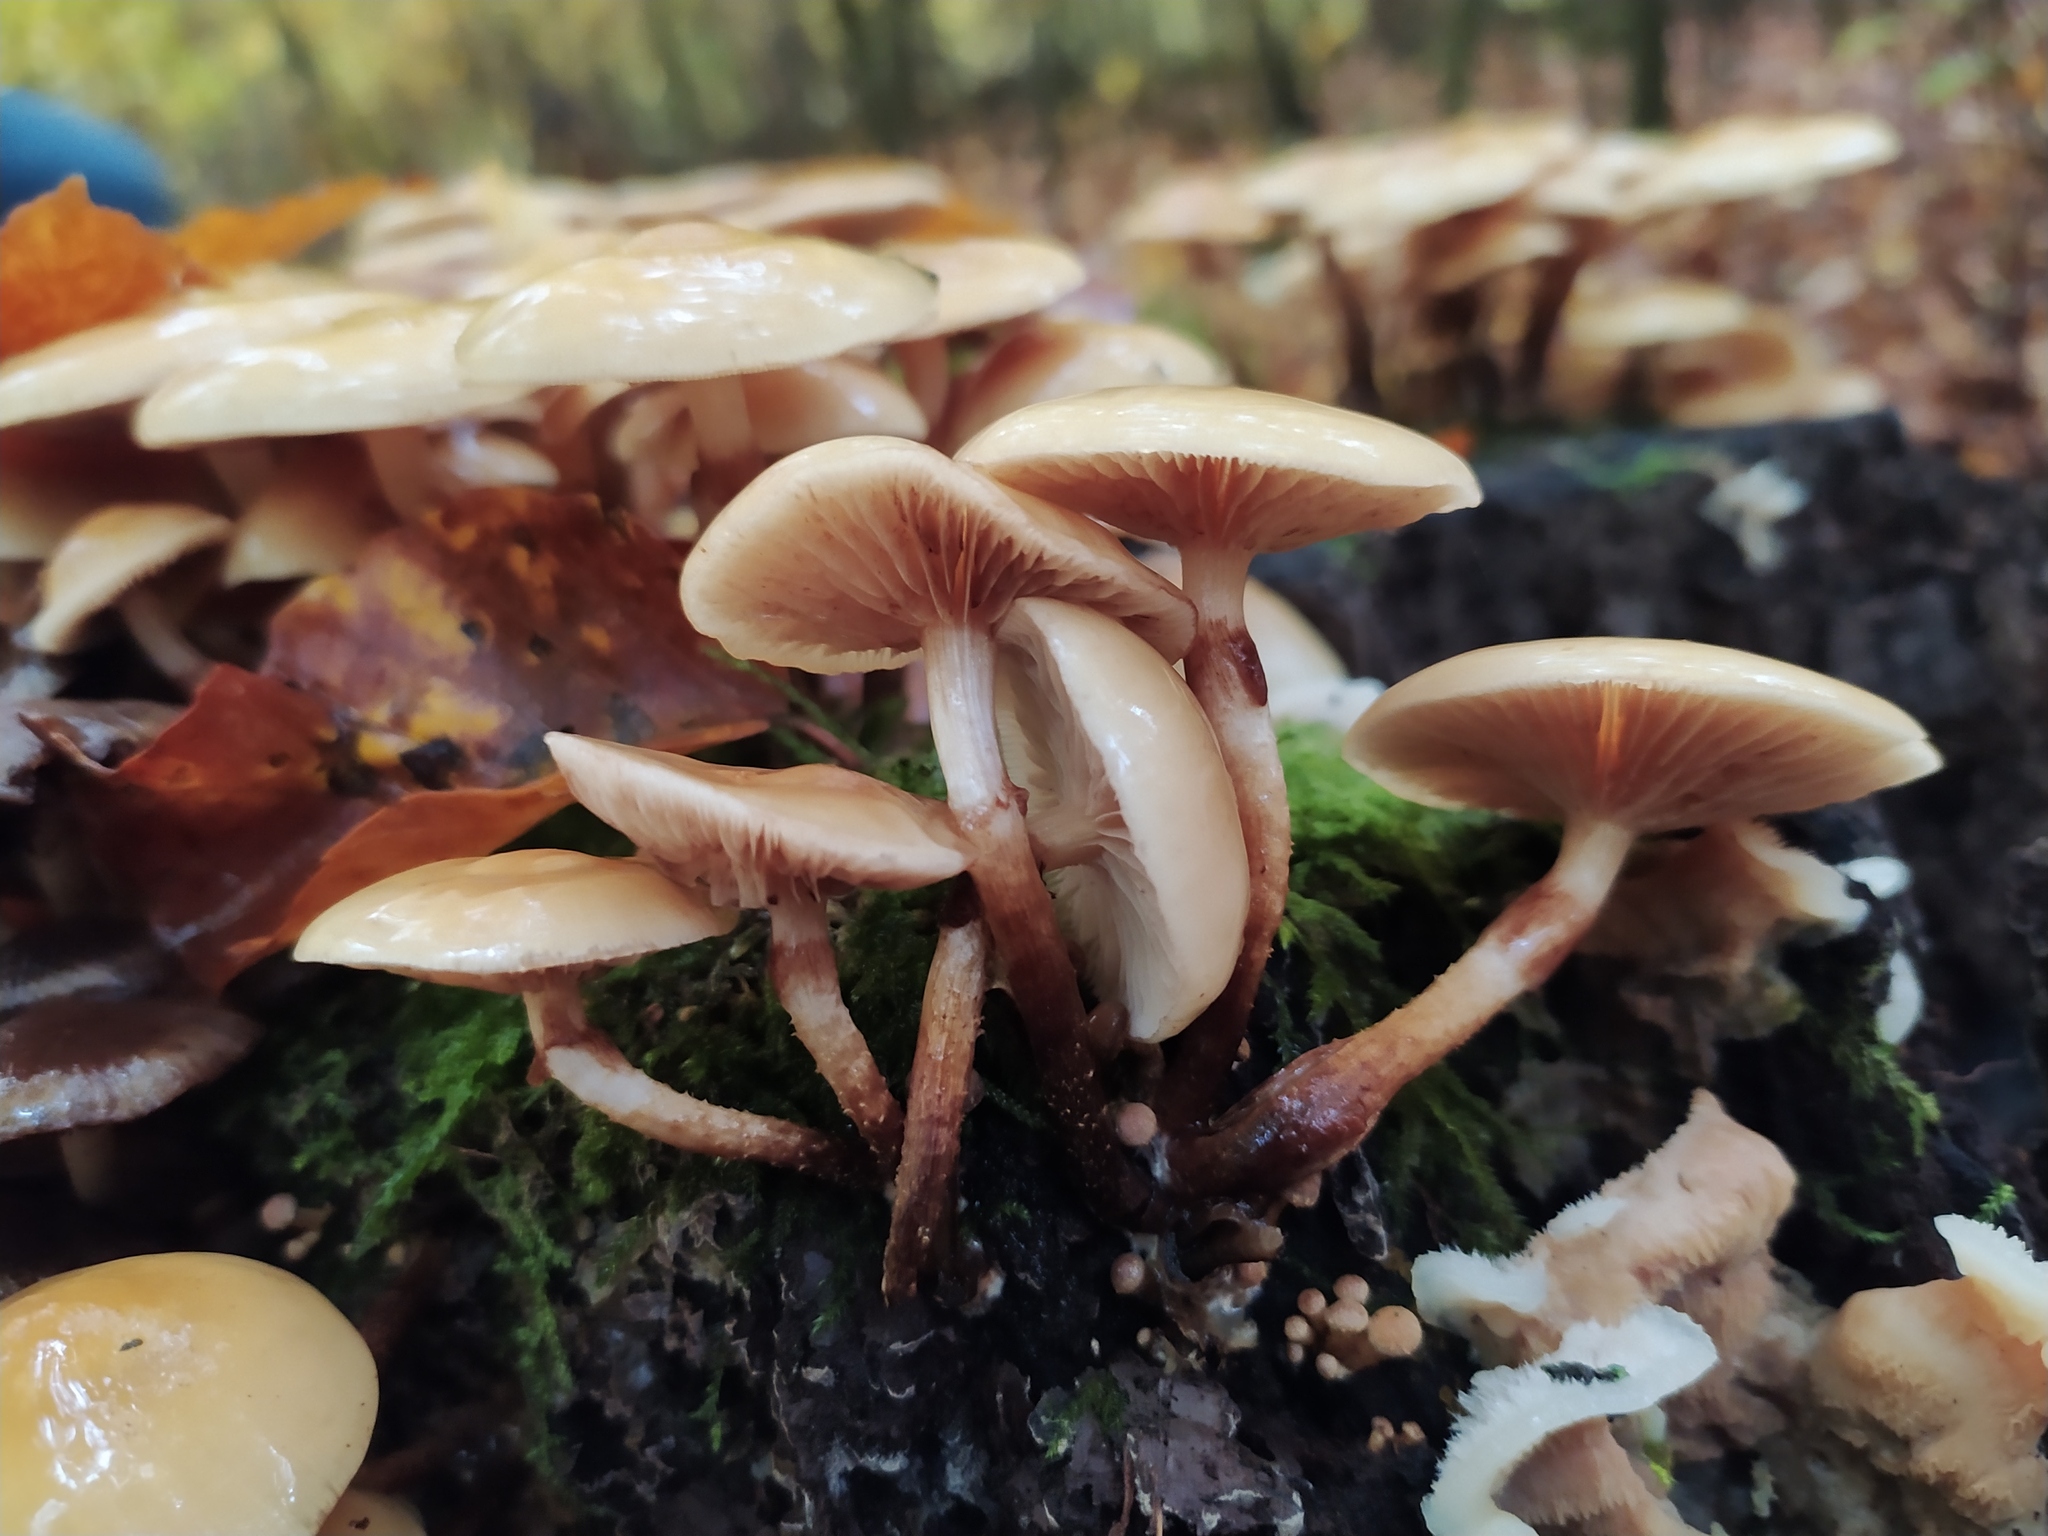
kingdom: Fungi
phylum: Basidiomycota
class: Agaricomycetes
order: Agaricales
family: Strophariaceae
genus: Kuehneromyces
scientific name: Kuehneromyces mutabilis
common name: Sheathed woodtuft
